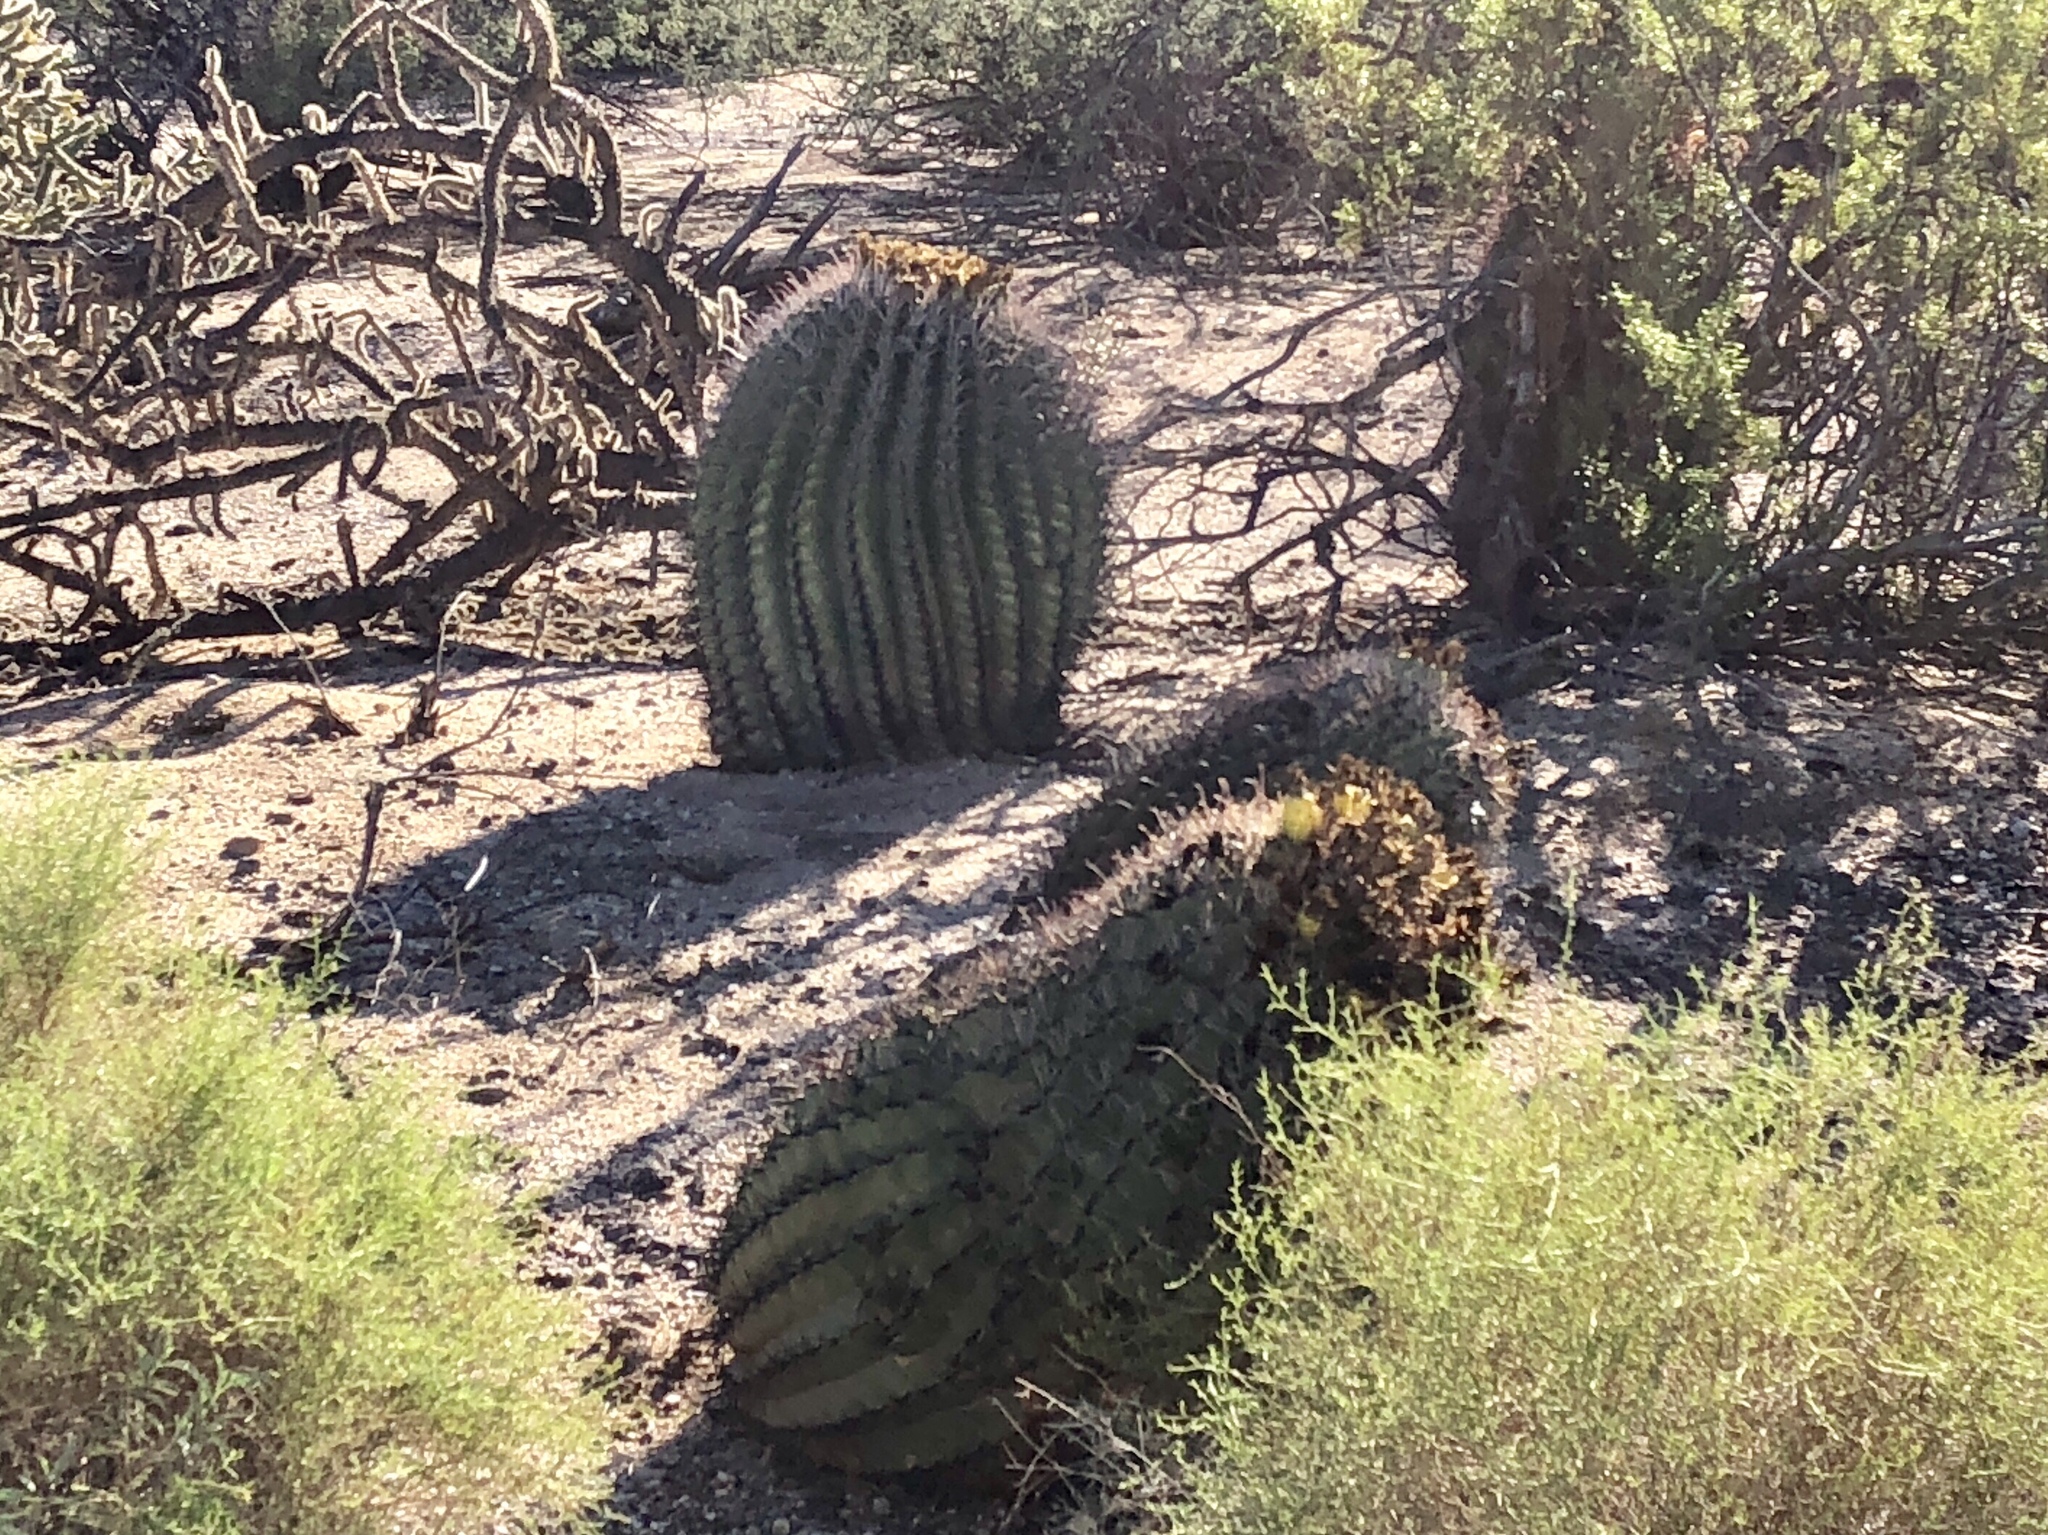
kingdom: Plantae
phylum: Tracheophyta
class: Magnoliopsida
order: Caryophyllales
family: Cactaceae
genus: Ferocactus
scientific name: Ferocactus wislizeni
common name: Candy barrel cactus
